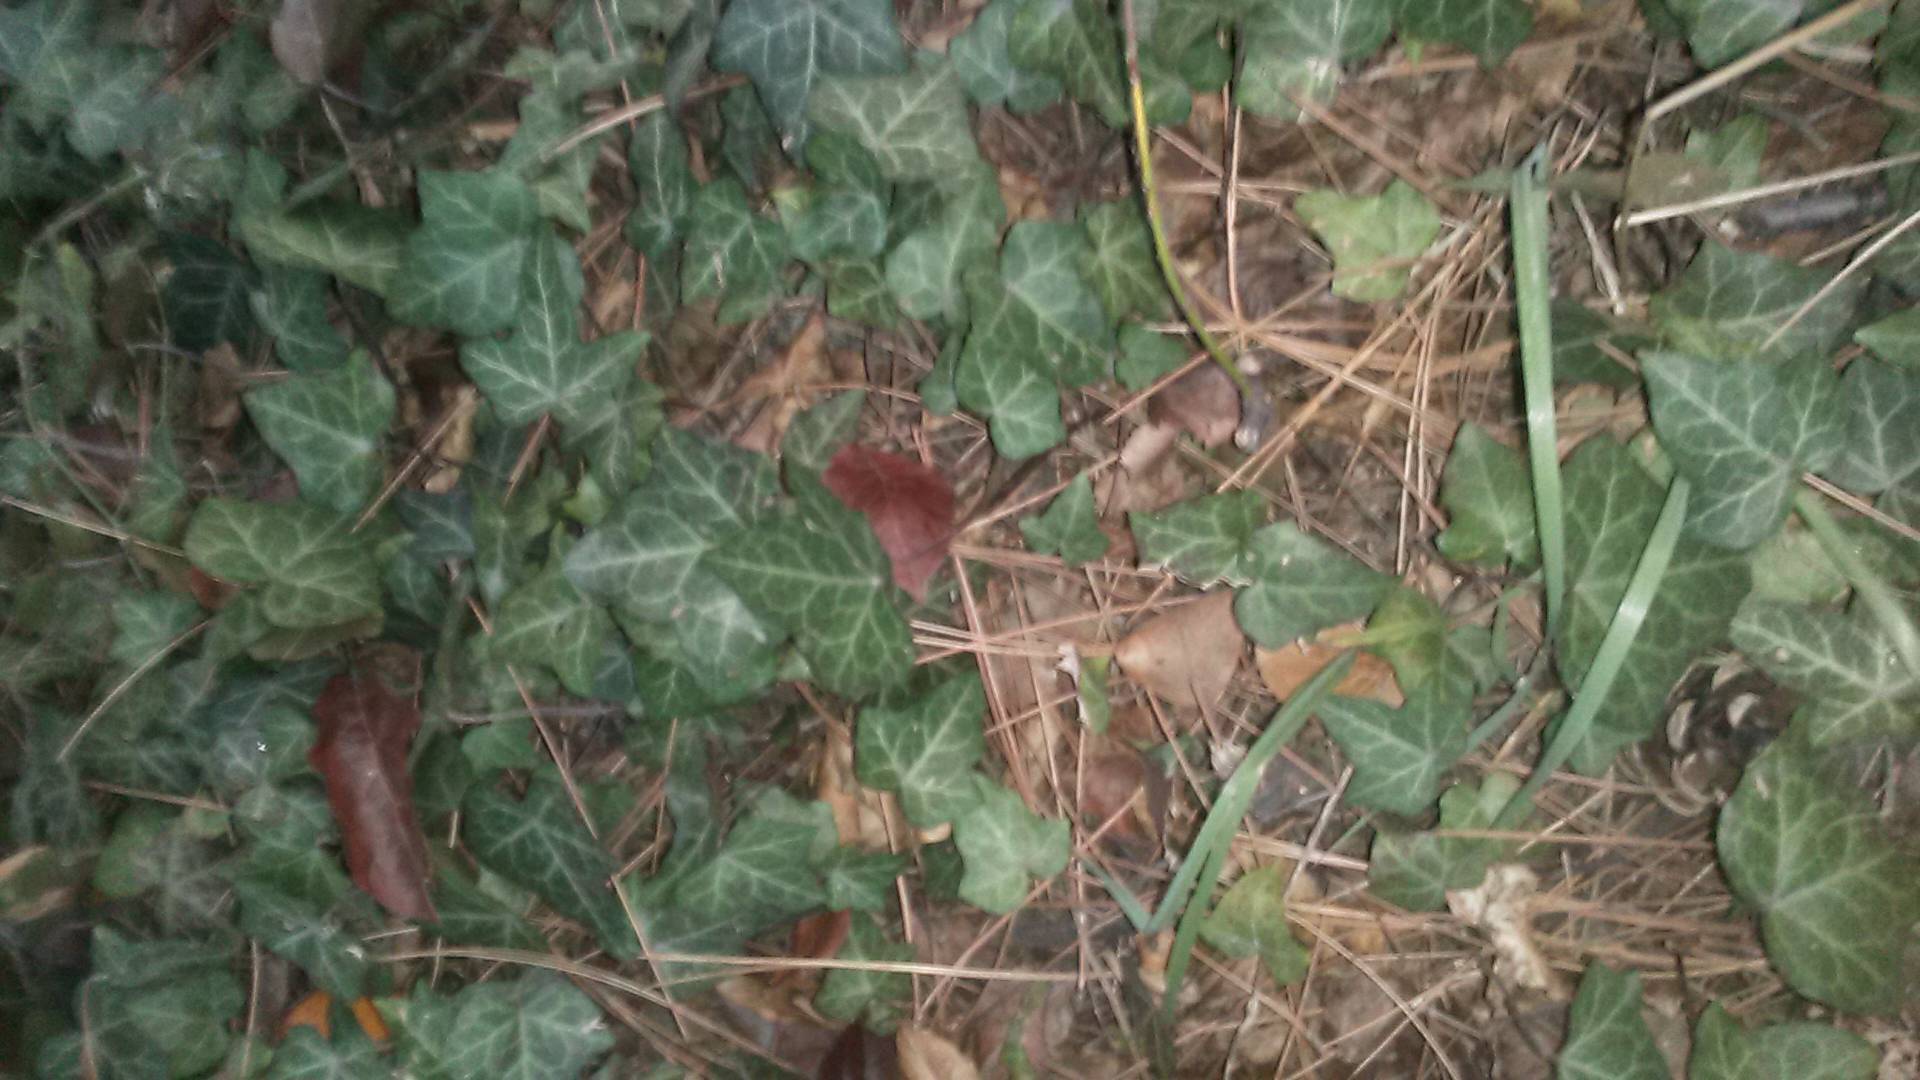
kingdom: Plantae
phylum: Tracheophyta
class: Magnoliopsida
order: Apiales
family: Araliaceae
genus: Hedera
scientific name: Hedera helix
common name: Ivy
